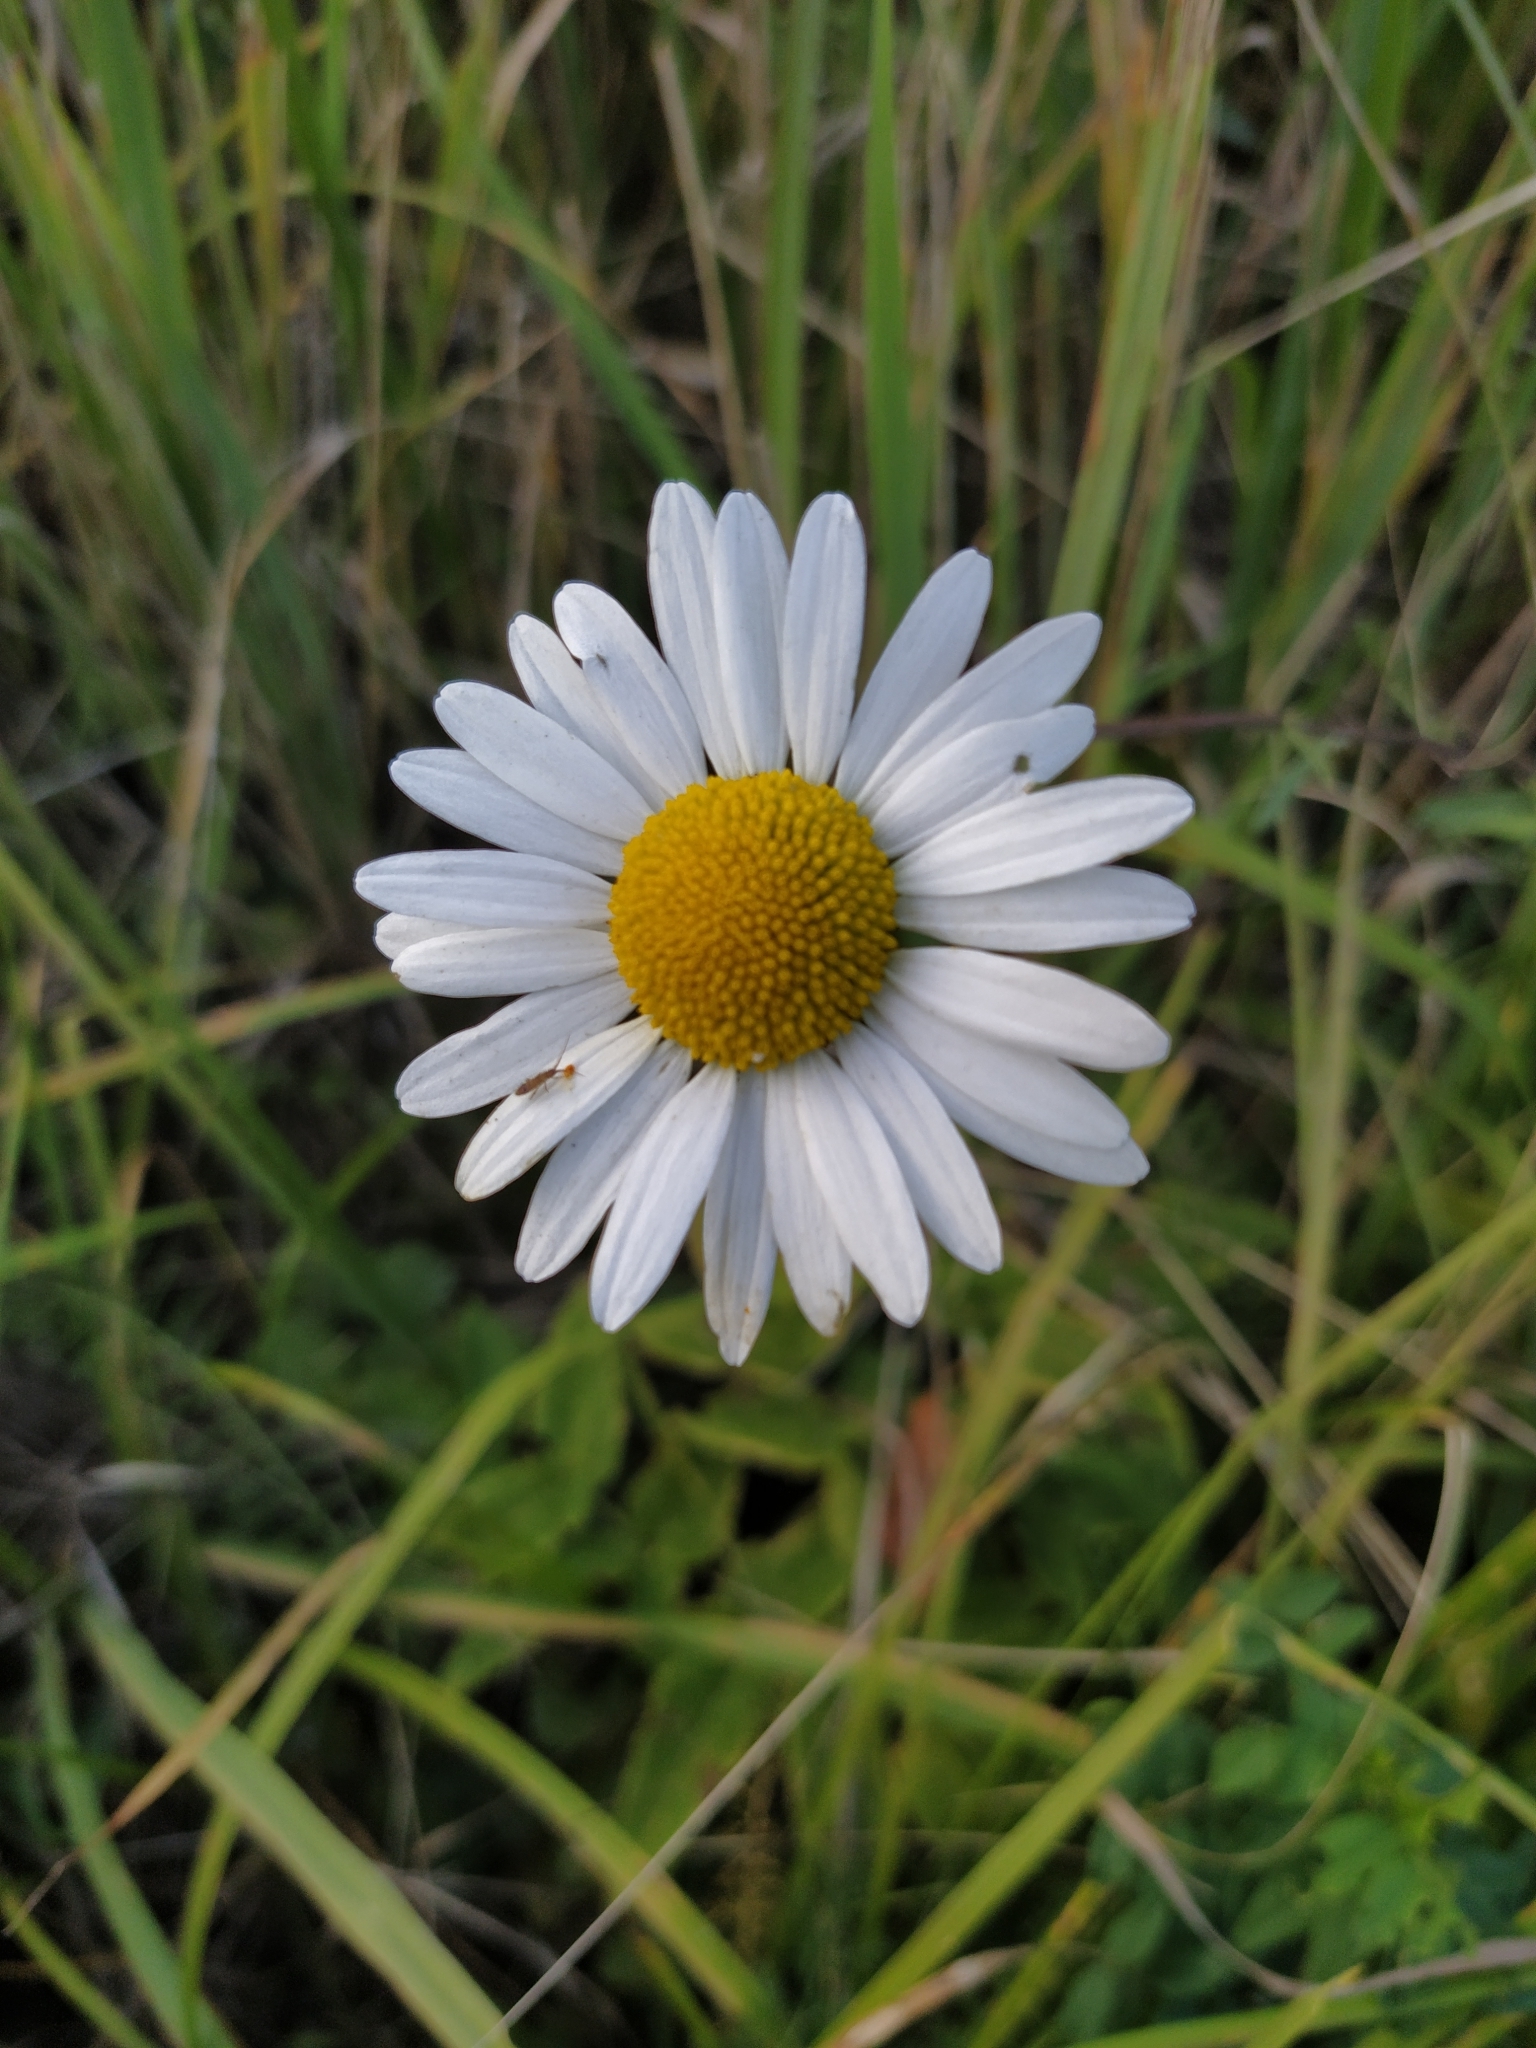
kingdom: Plantae
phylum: Tracheophyta
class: Magnoliopsida
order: Asterales
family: Asteraceae
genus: Leucanthemum
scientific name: Leucanthemum vulgare
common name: Oxeye daisy
